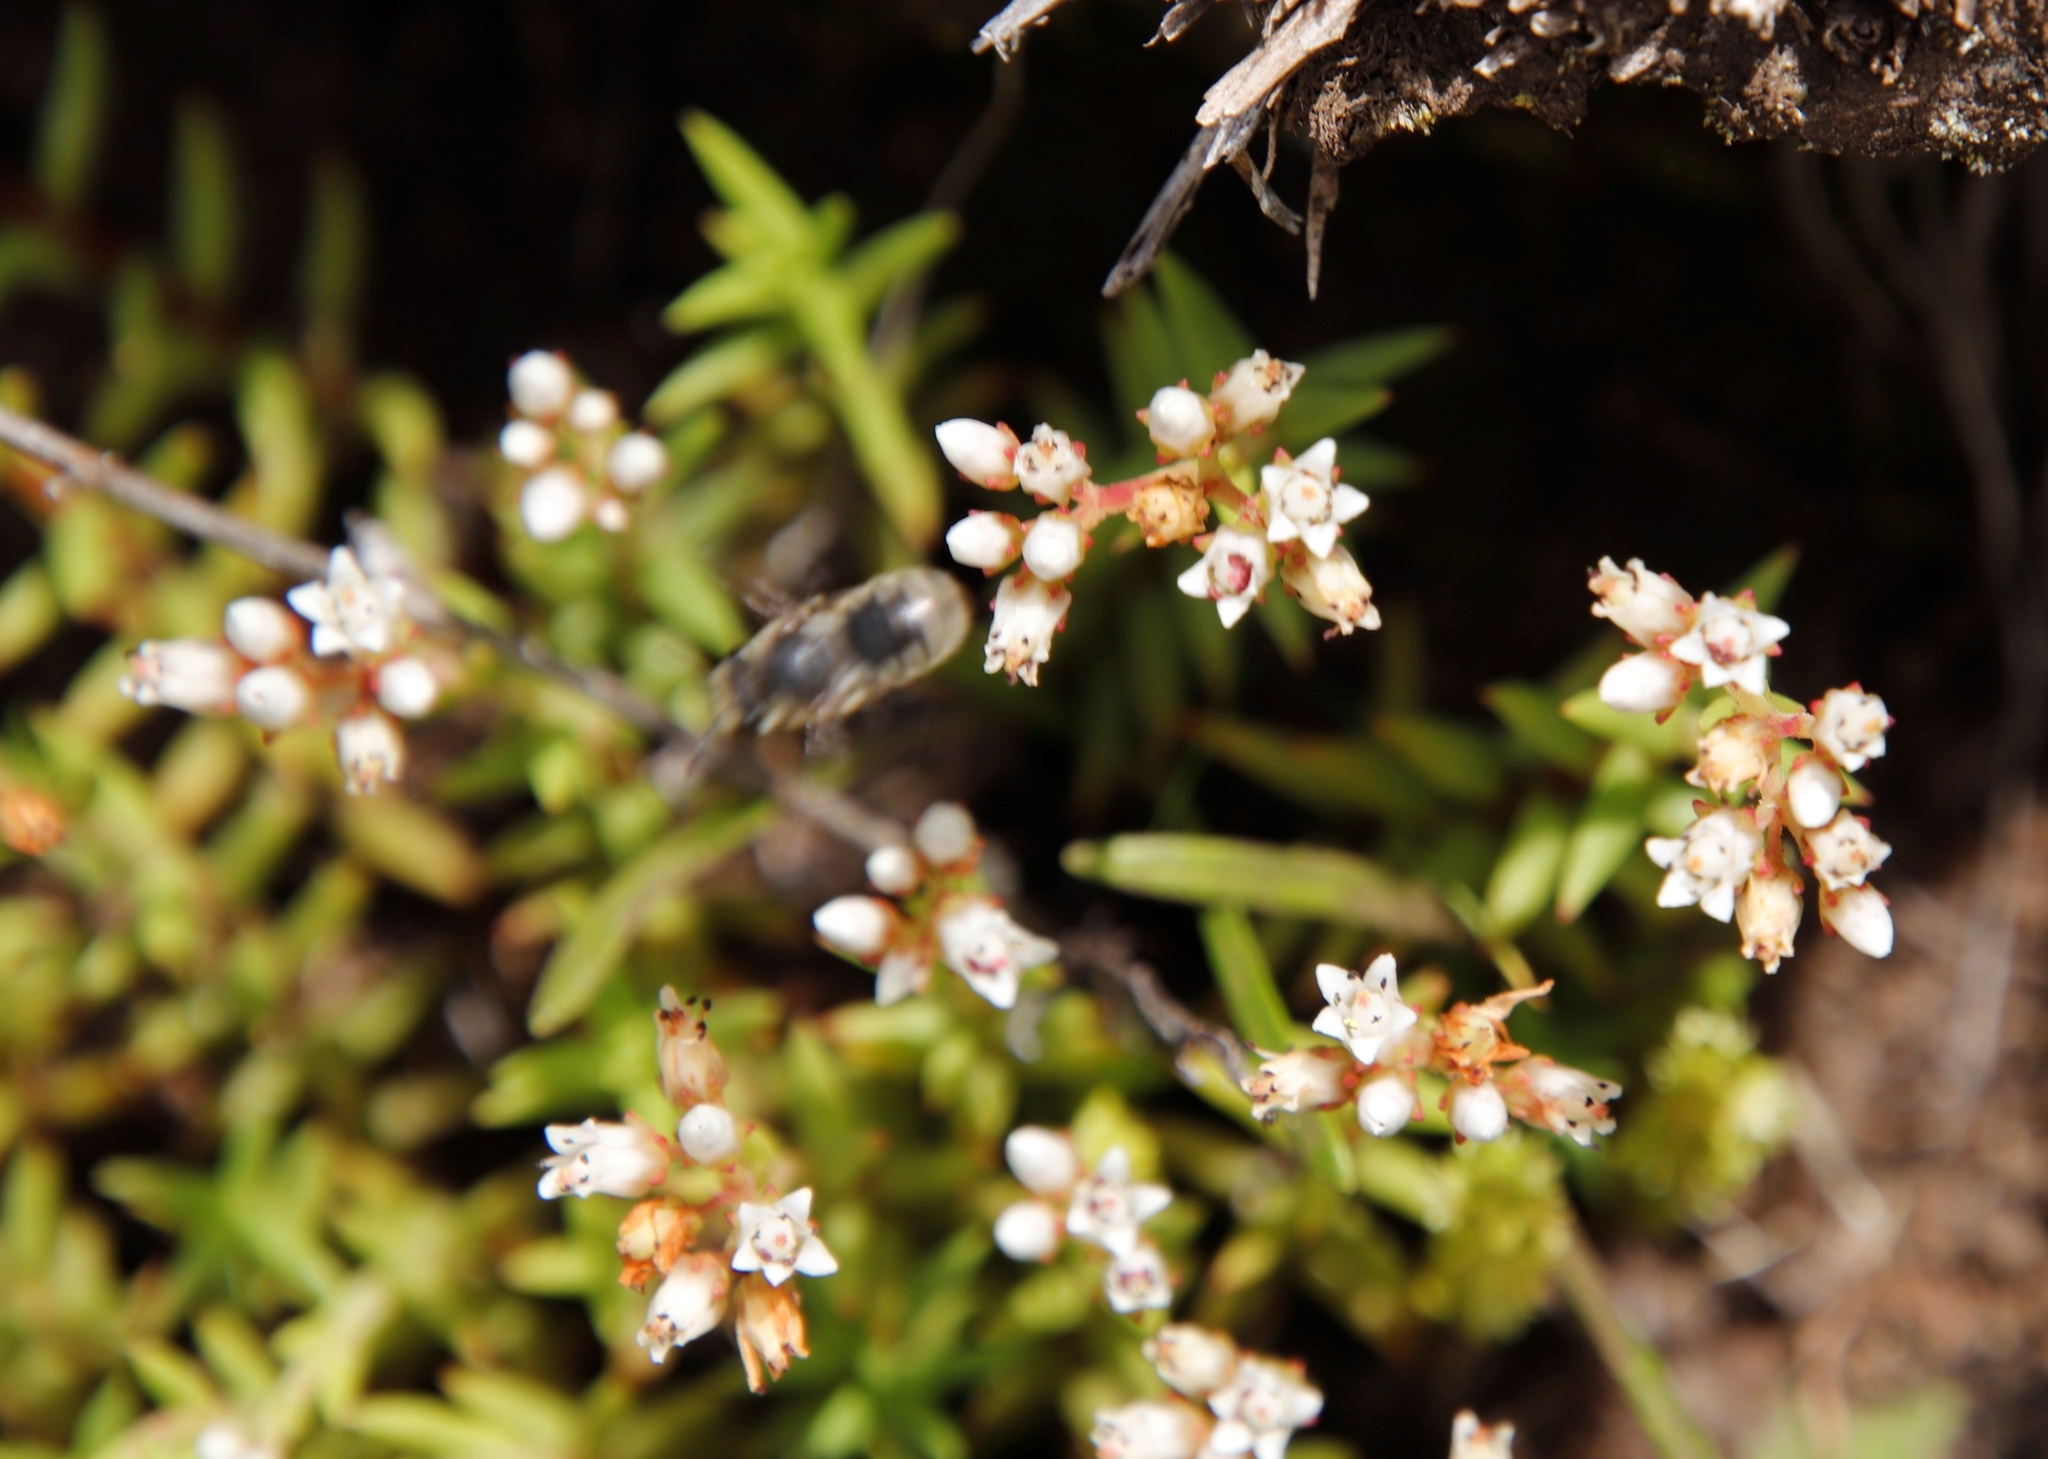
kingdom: Plantae
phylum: Tracheophyta
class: Magnoliopsida
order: Saxifragales
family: Crassulaceae
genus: Crassula
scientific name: Crassula dependens
